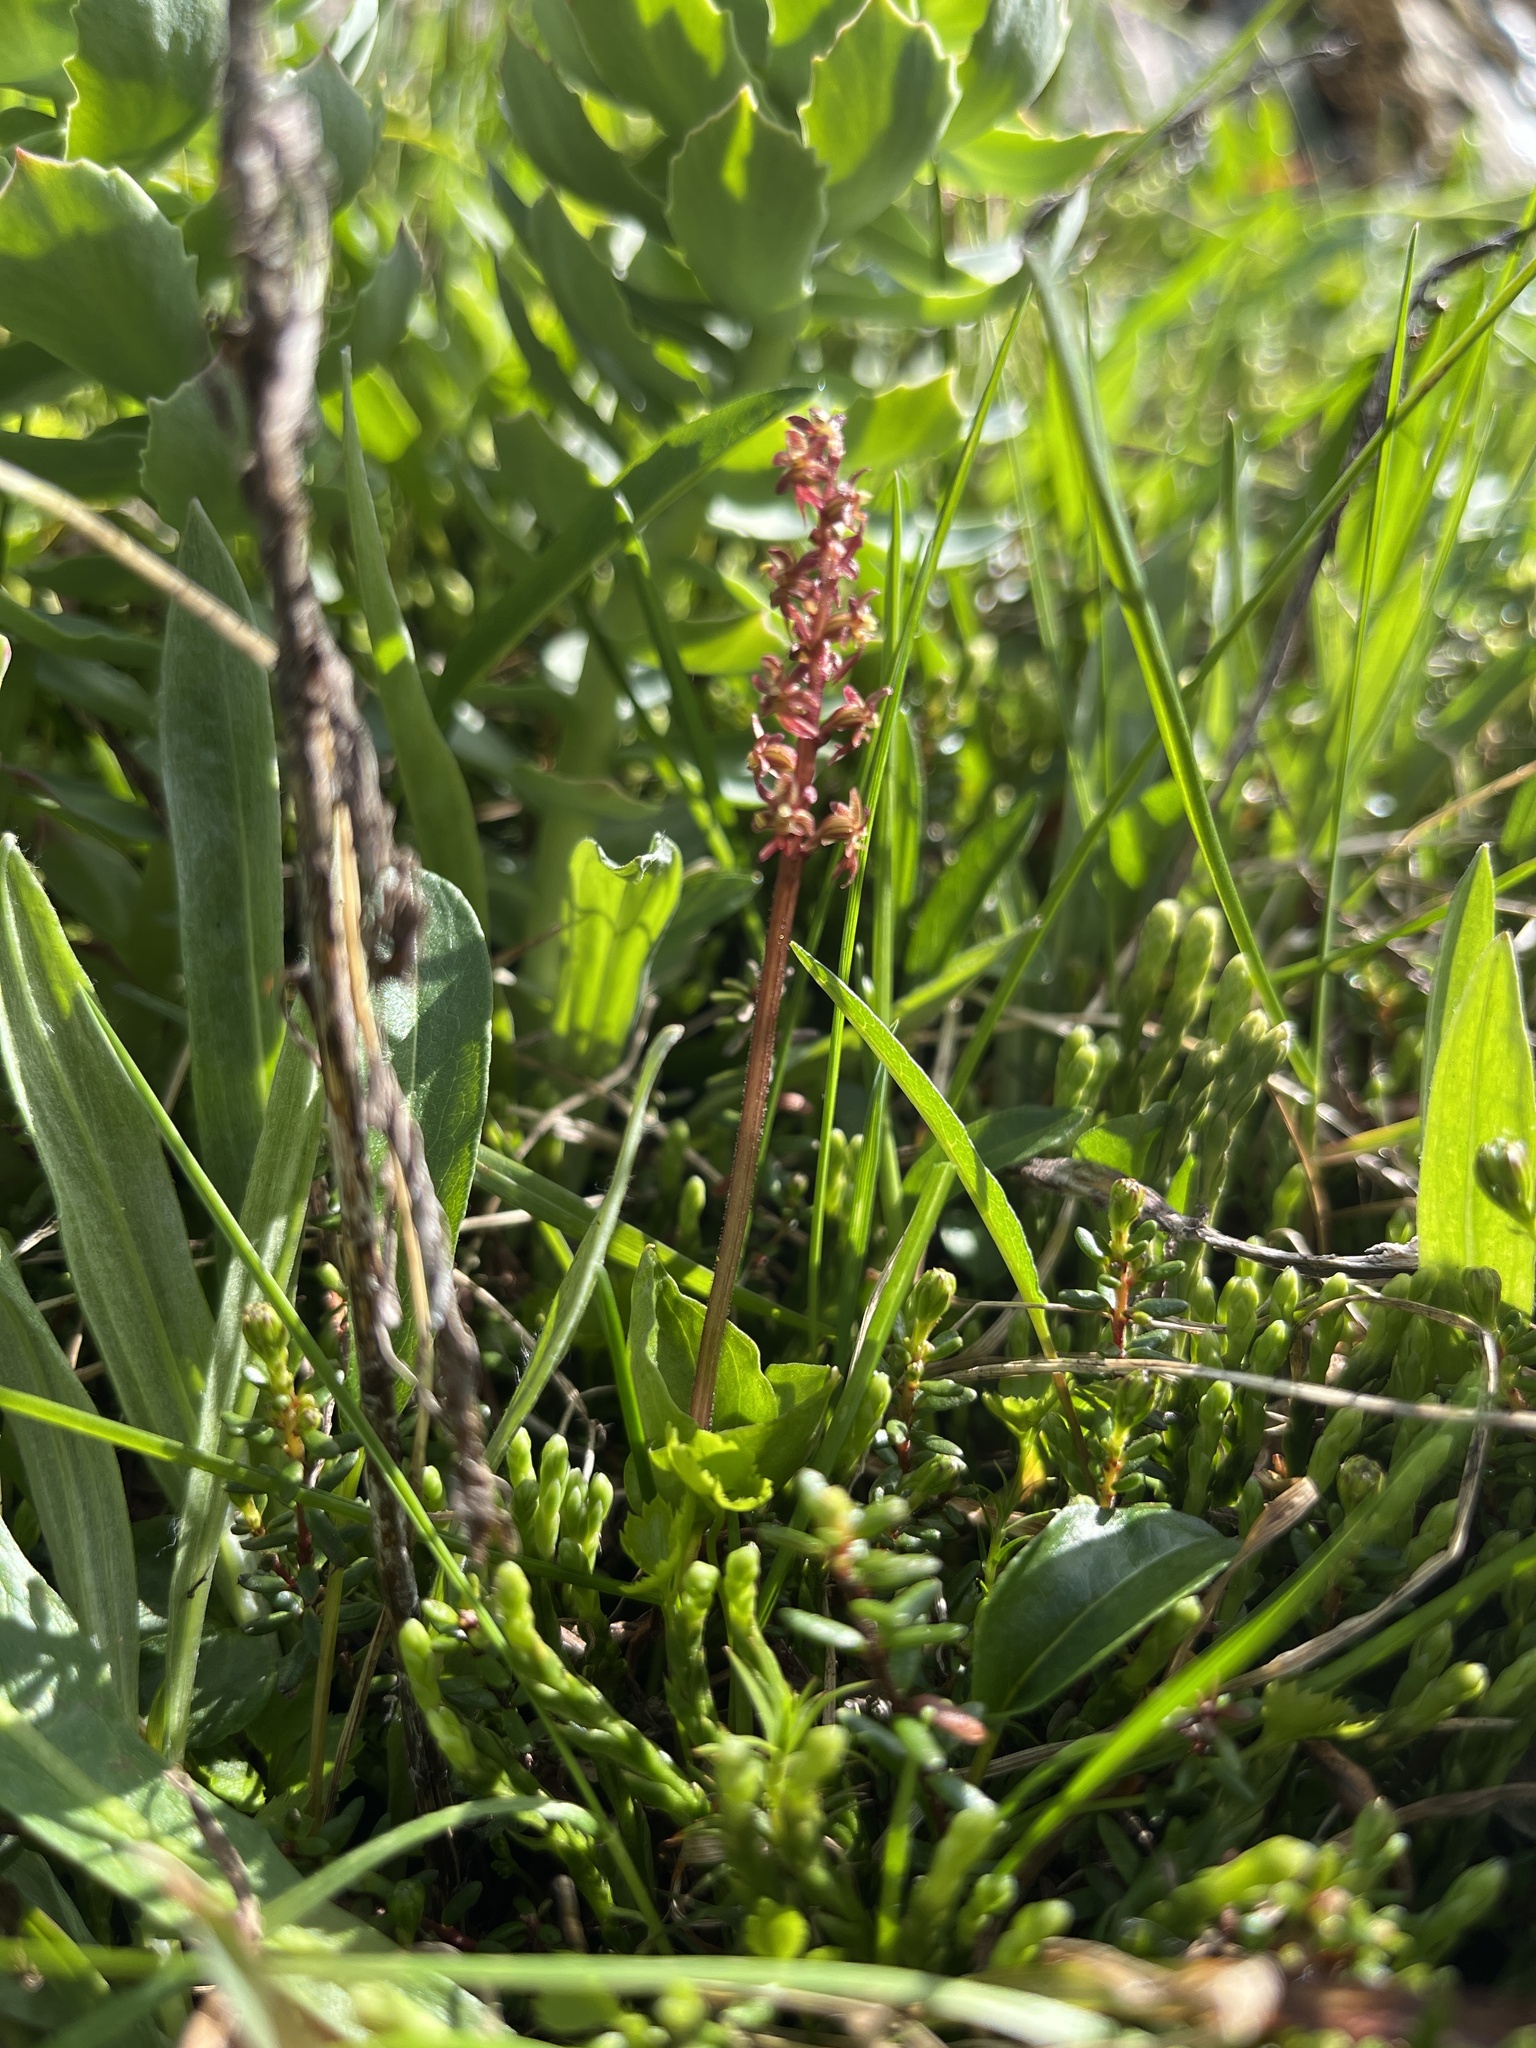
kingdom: Plantae
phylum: Tracheophyta
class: Liliopsida
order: Asparagales
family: Orchidaceae
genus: Neottia
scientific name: Neottia cordata
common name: Lesser twayblade
